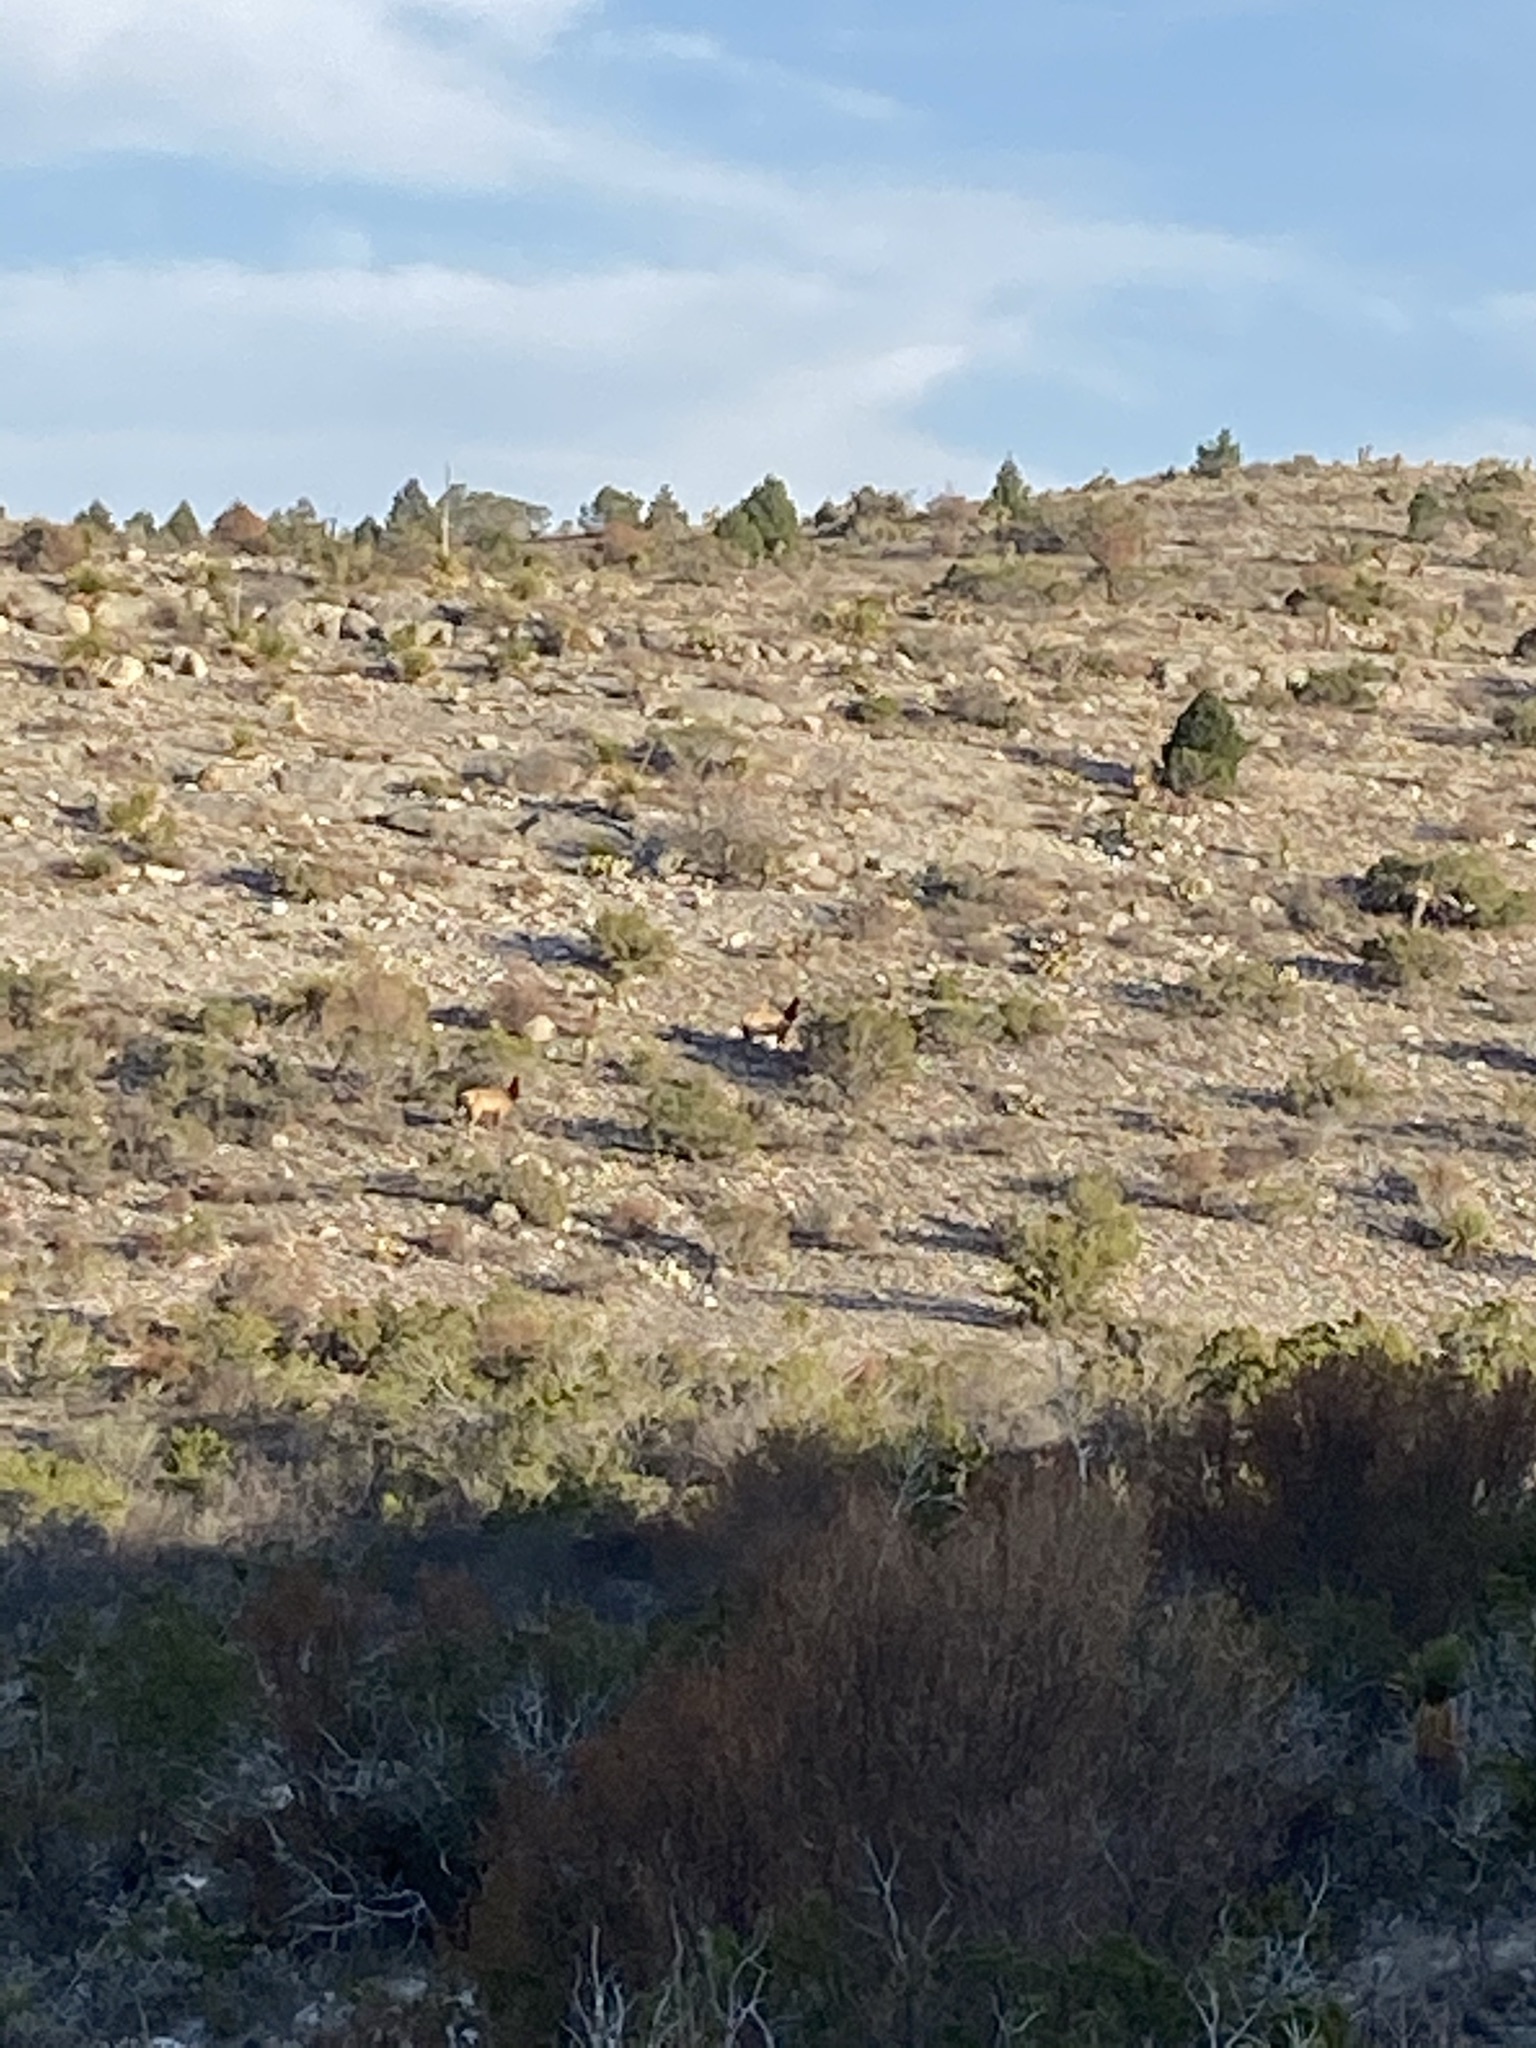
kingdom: Animalia
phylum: Chordata
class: Mammalia
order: Artiodactyla
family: Cervidae
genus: Cervus
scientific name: Cervus elaphus
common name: Red deer
